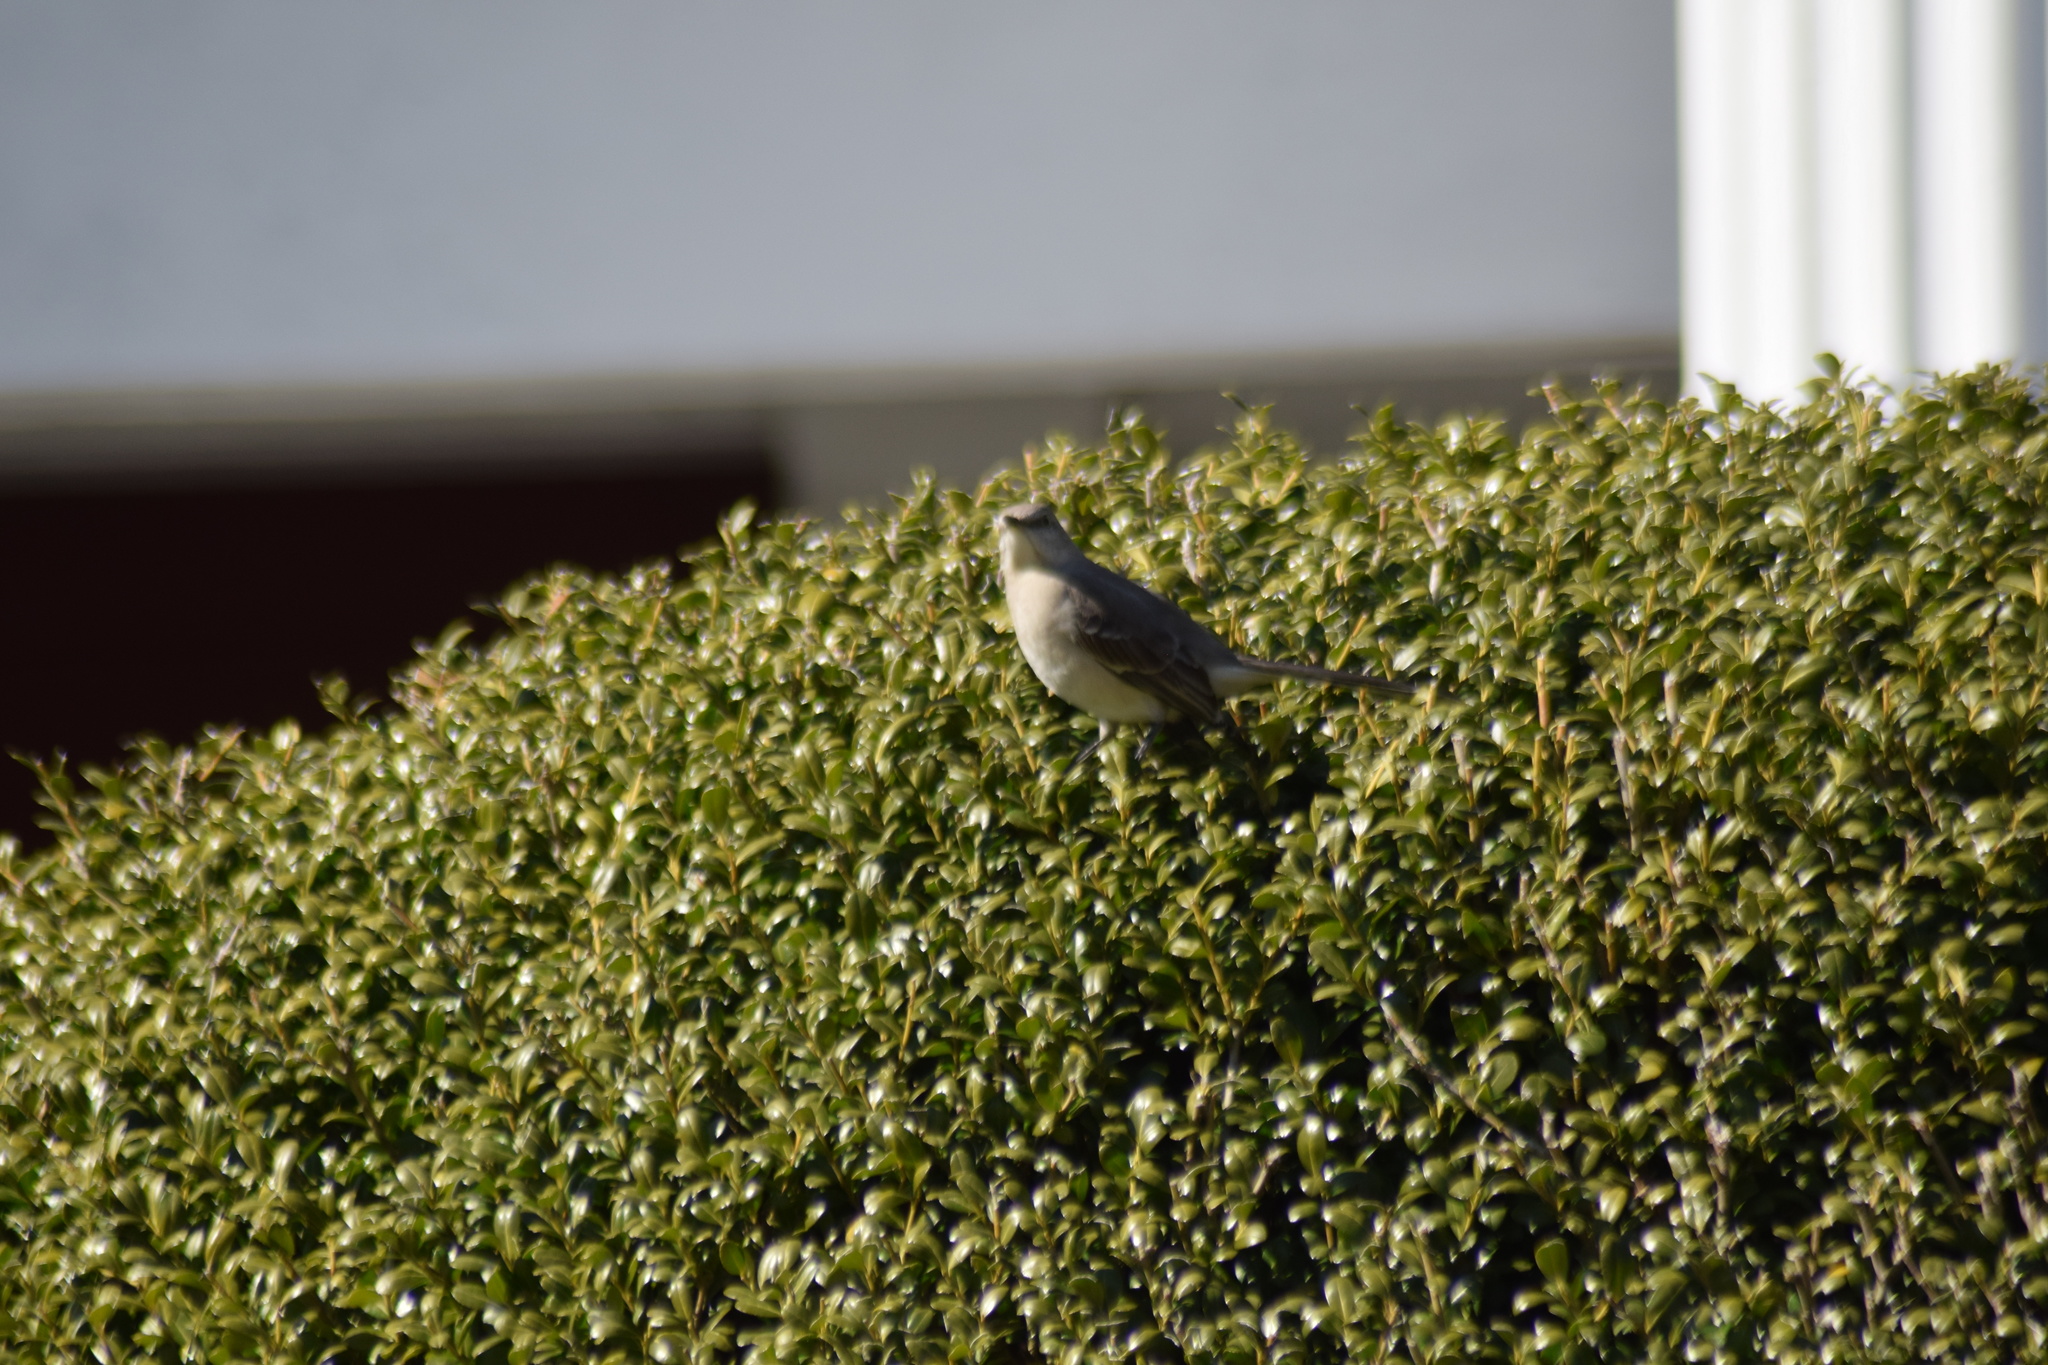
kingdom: Animalia
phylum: Chordata
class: Aves
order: Passeriformes
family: Mimidae
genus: Mimus
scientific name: Mimus polyglottos
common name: Northern mockingbird
